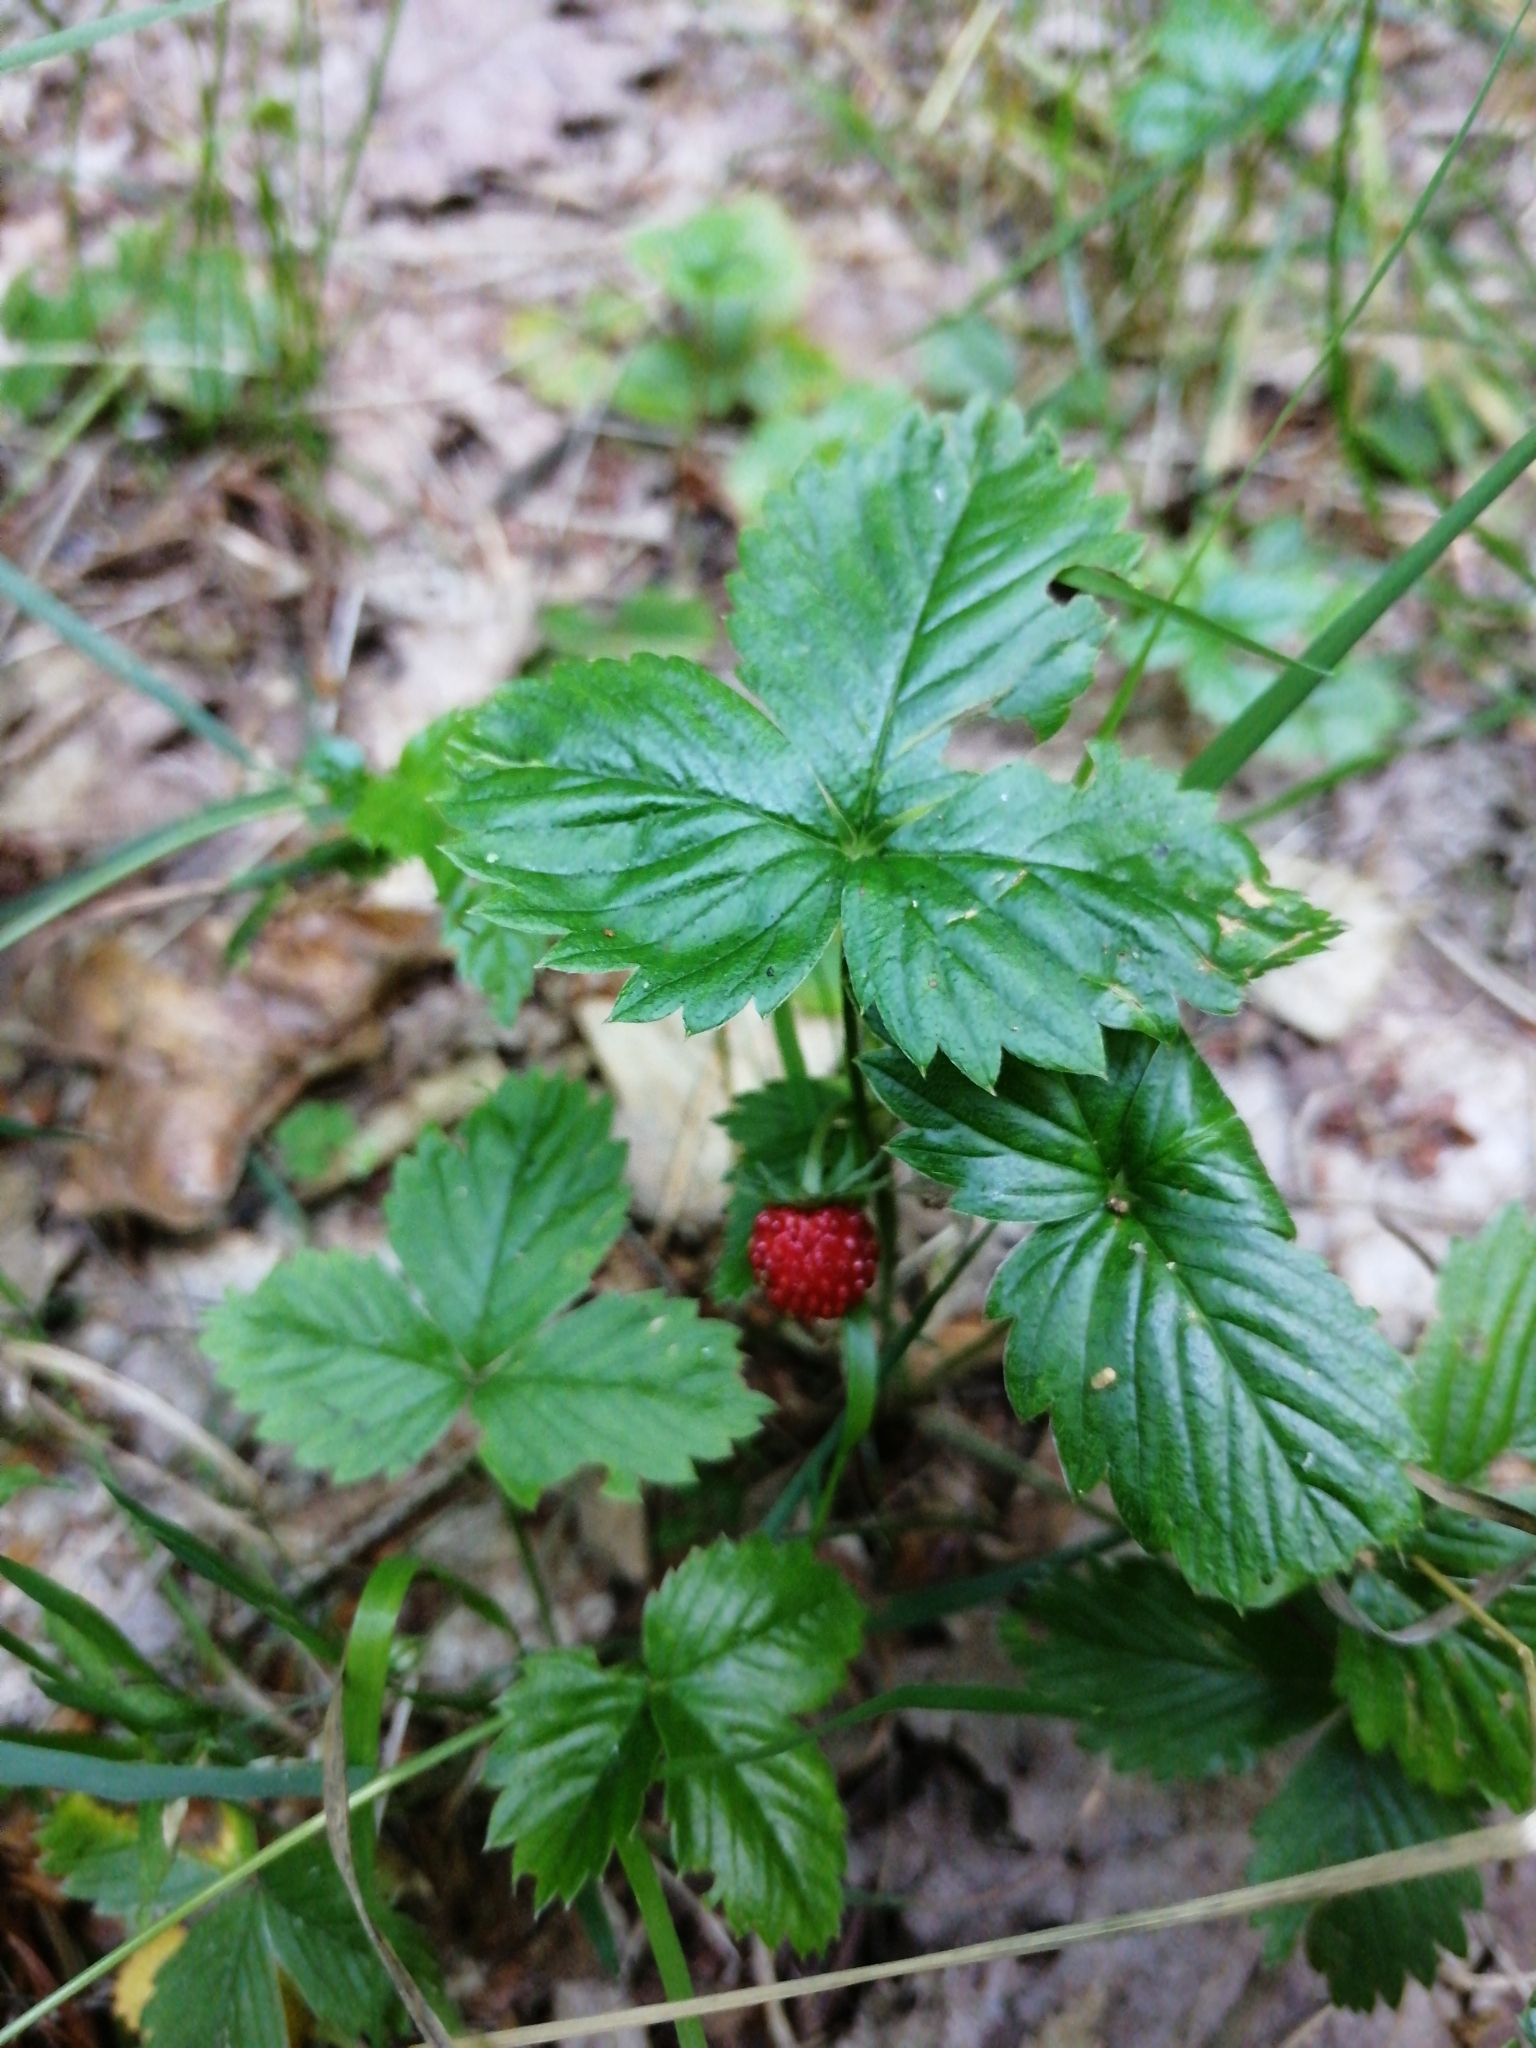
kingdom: Plantae
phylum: Tracheophyta
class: Magnoliopsida
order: Rosales
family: Rosaceae
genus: Fragaria
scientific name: Fragaria vesca
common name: Wild strawberry
